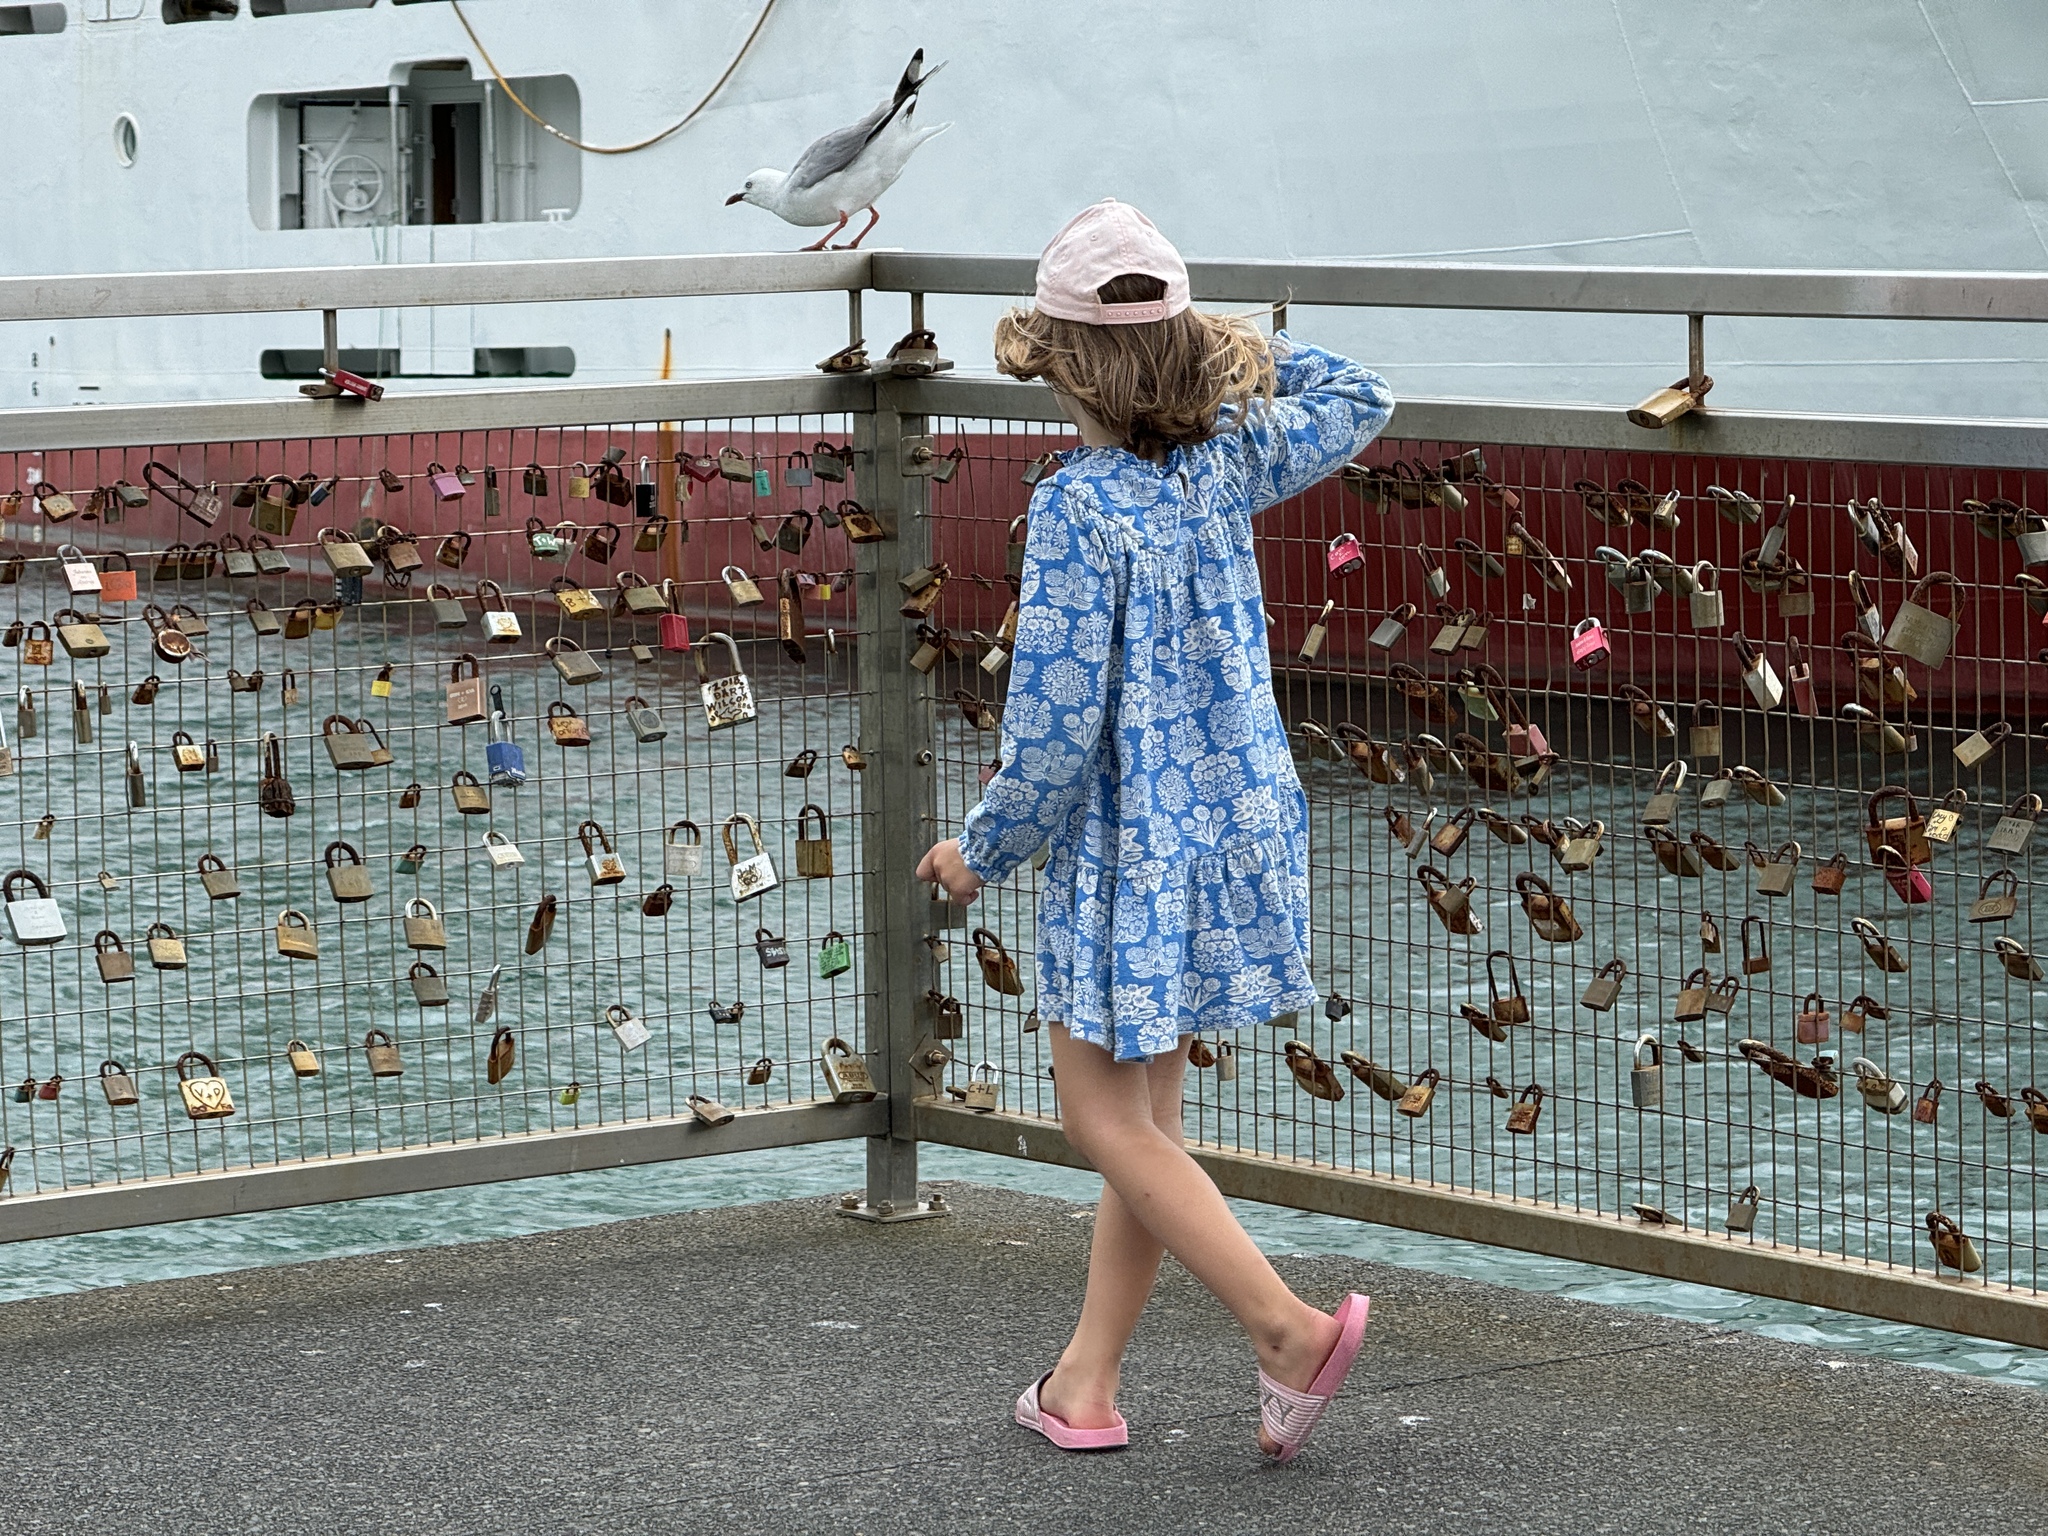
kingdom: Animalia
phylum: Chordata
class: Aves
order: Charadriiformes
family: Laridae
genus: Chroicocephalus
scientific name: Chroicocephalus novaehollandiae
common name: Silver gull
